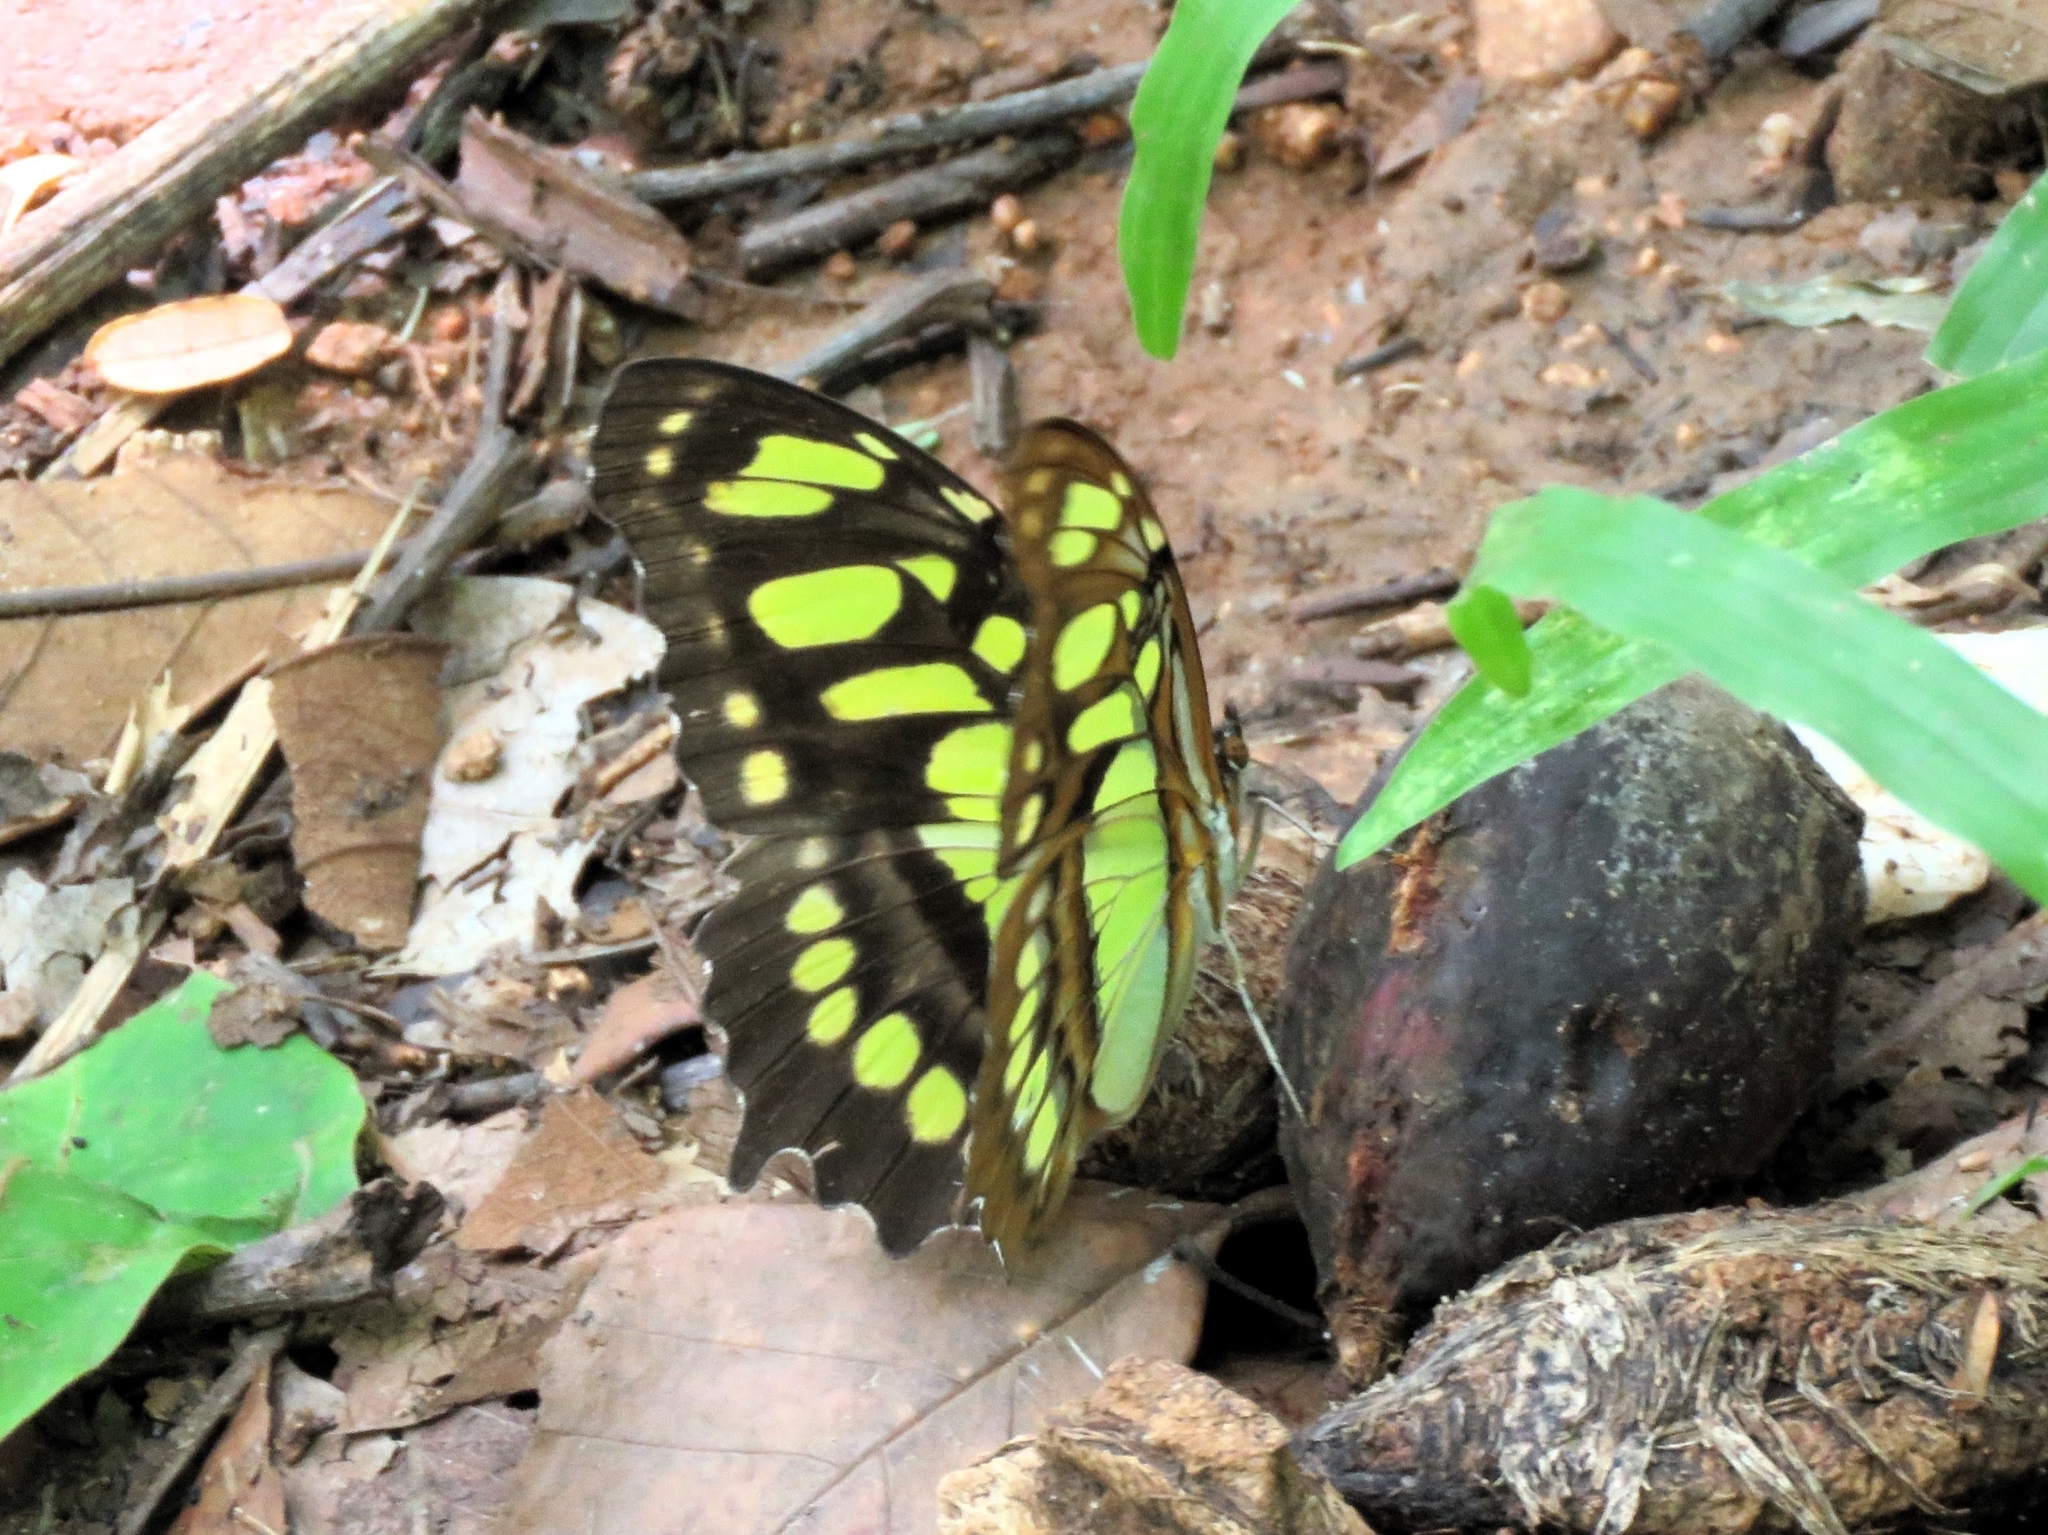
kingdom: Animalia
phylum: Arthropoda
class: Insecta
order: Lepidoptera
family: Nymphalidae
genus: Siproeta
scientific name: Siproeta stelenes
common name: Malachite
